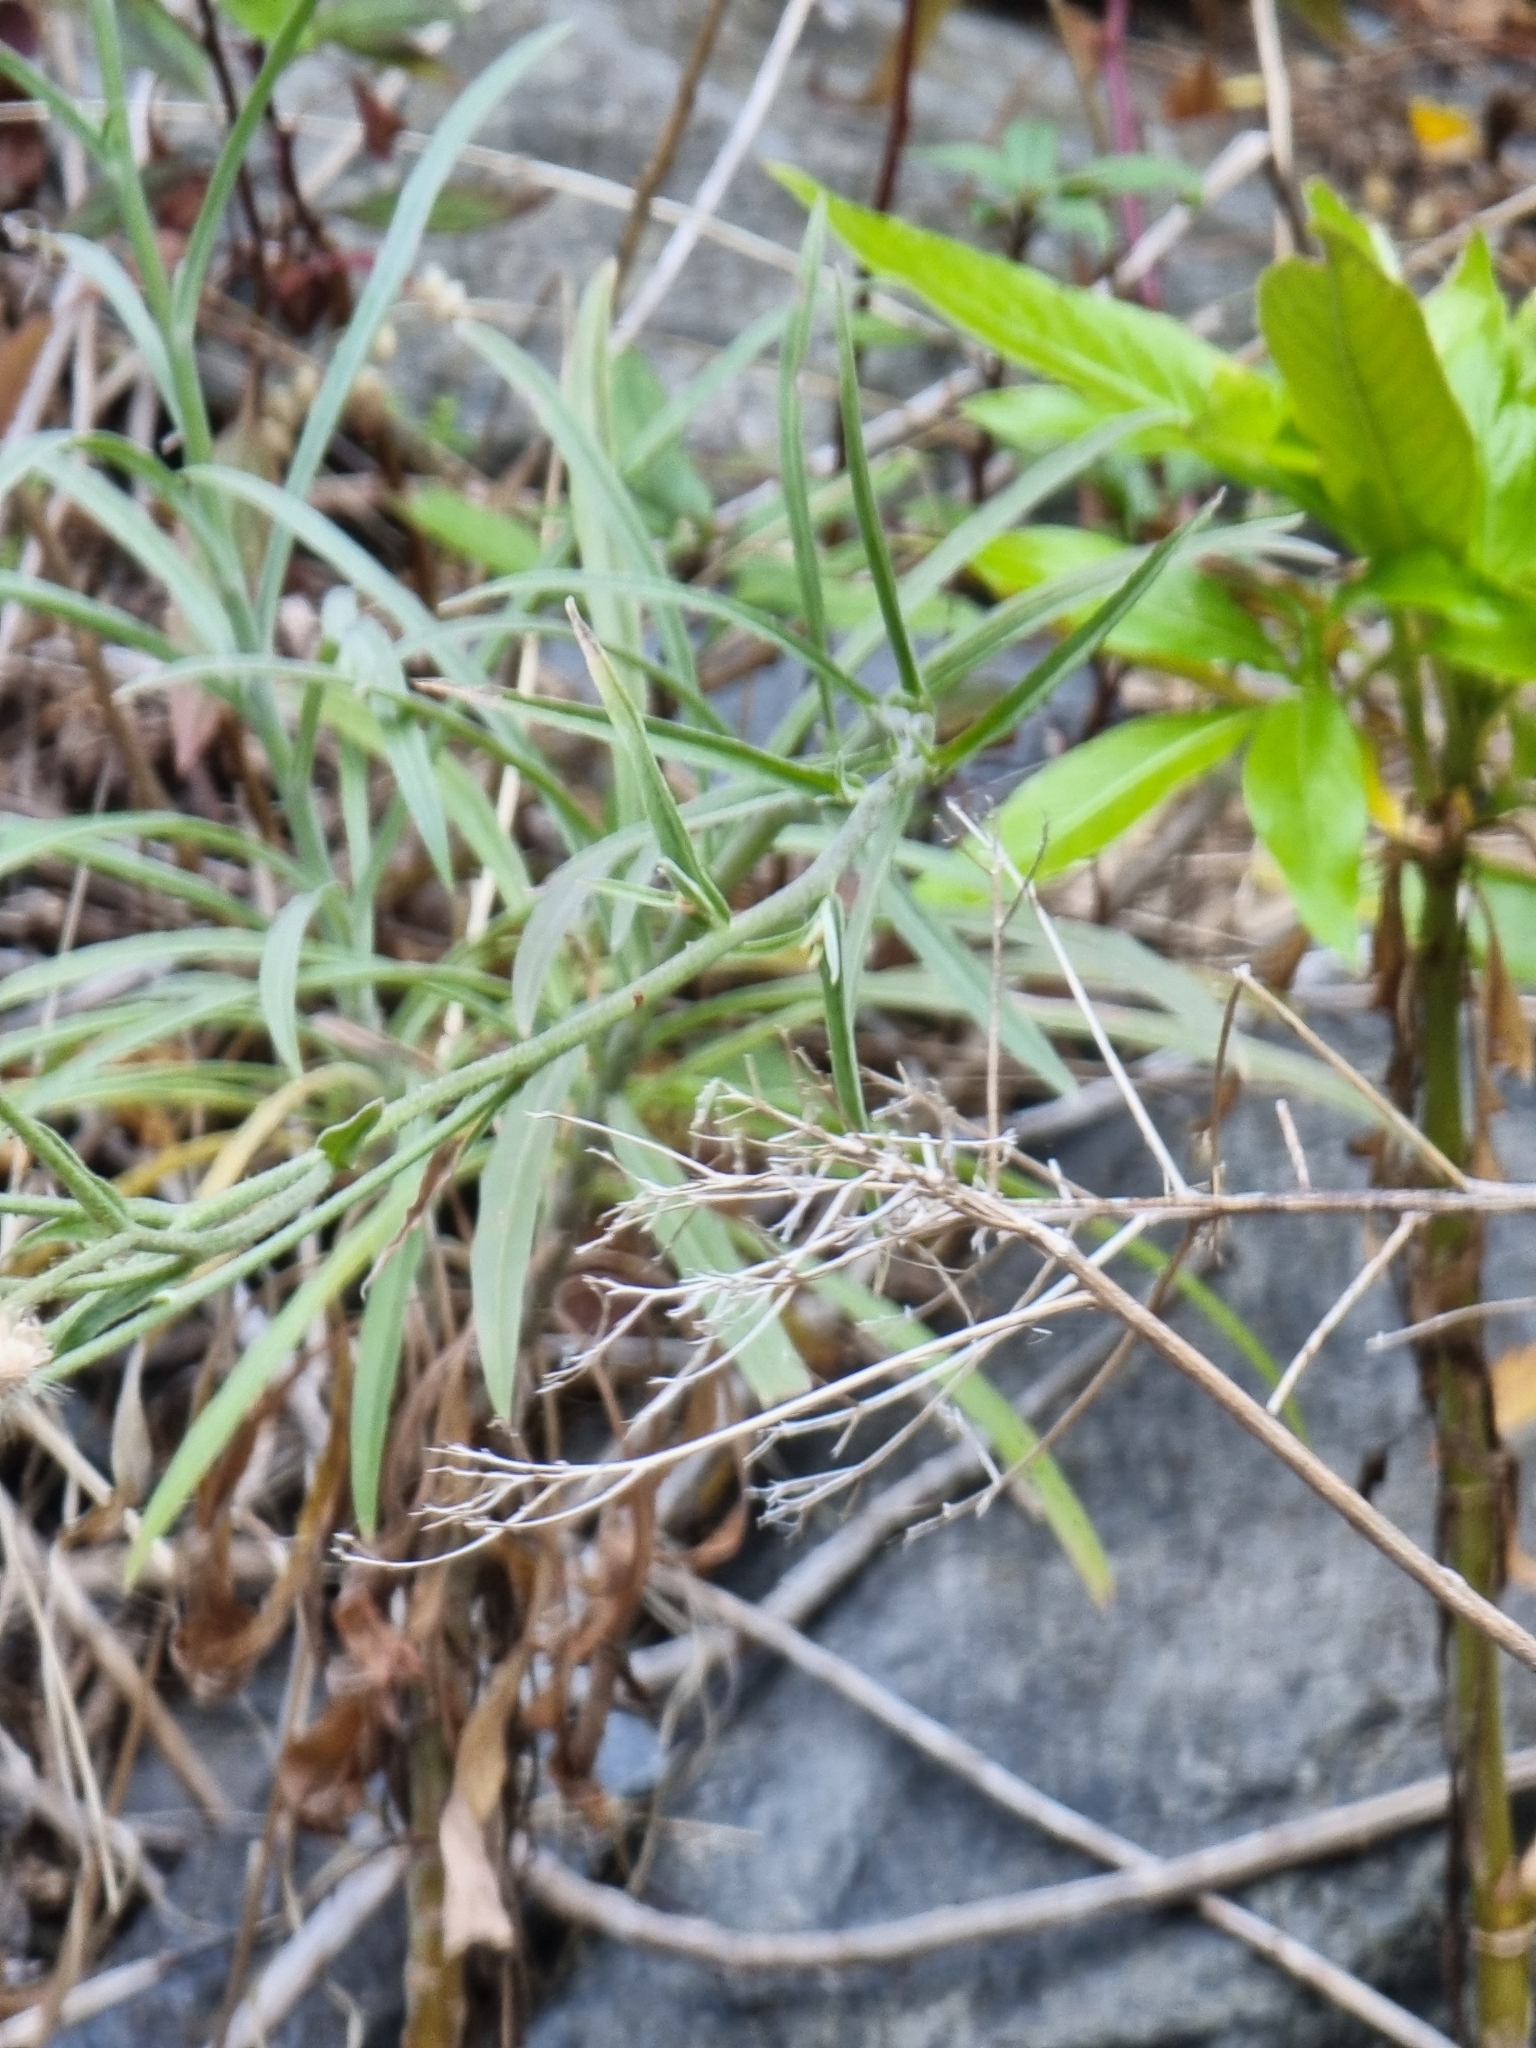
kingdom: Plantae
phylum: Tracheophyta
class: Magnoliopsida
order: Asterales
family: Asteraceae
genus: Andryala
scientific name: Andryala glandulosa
